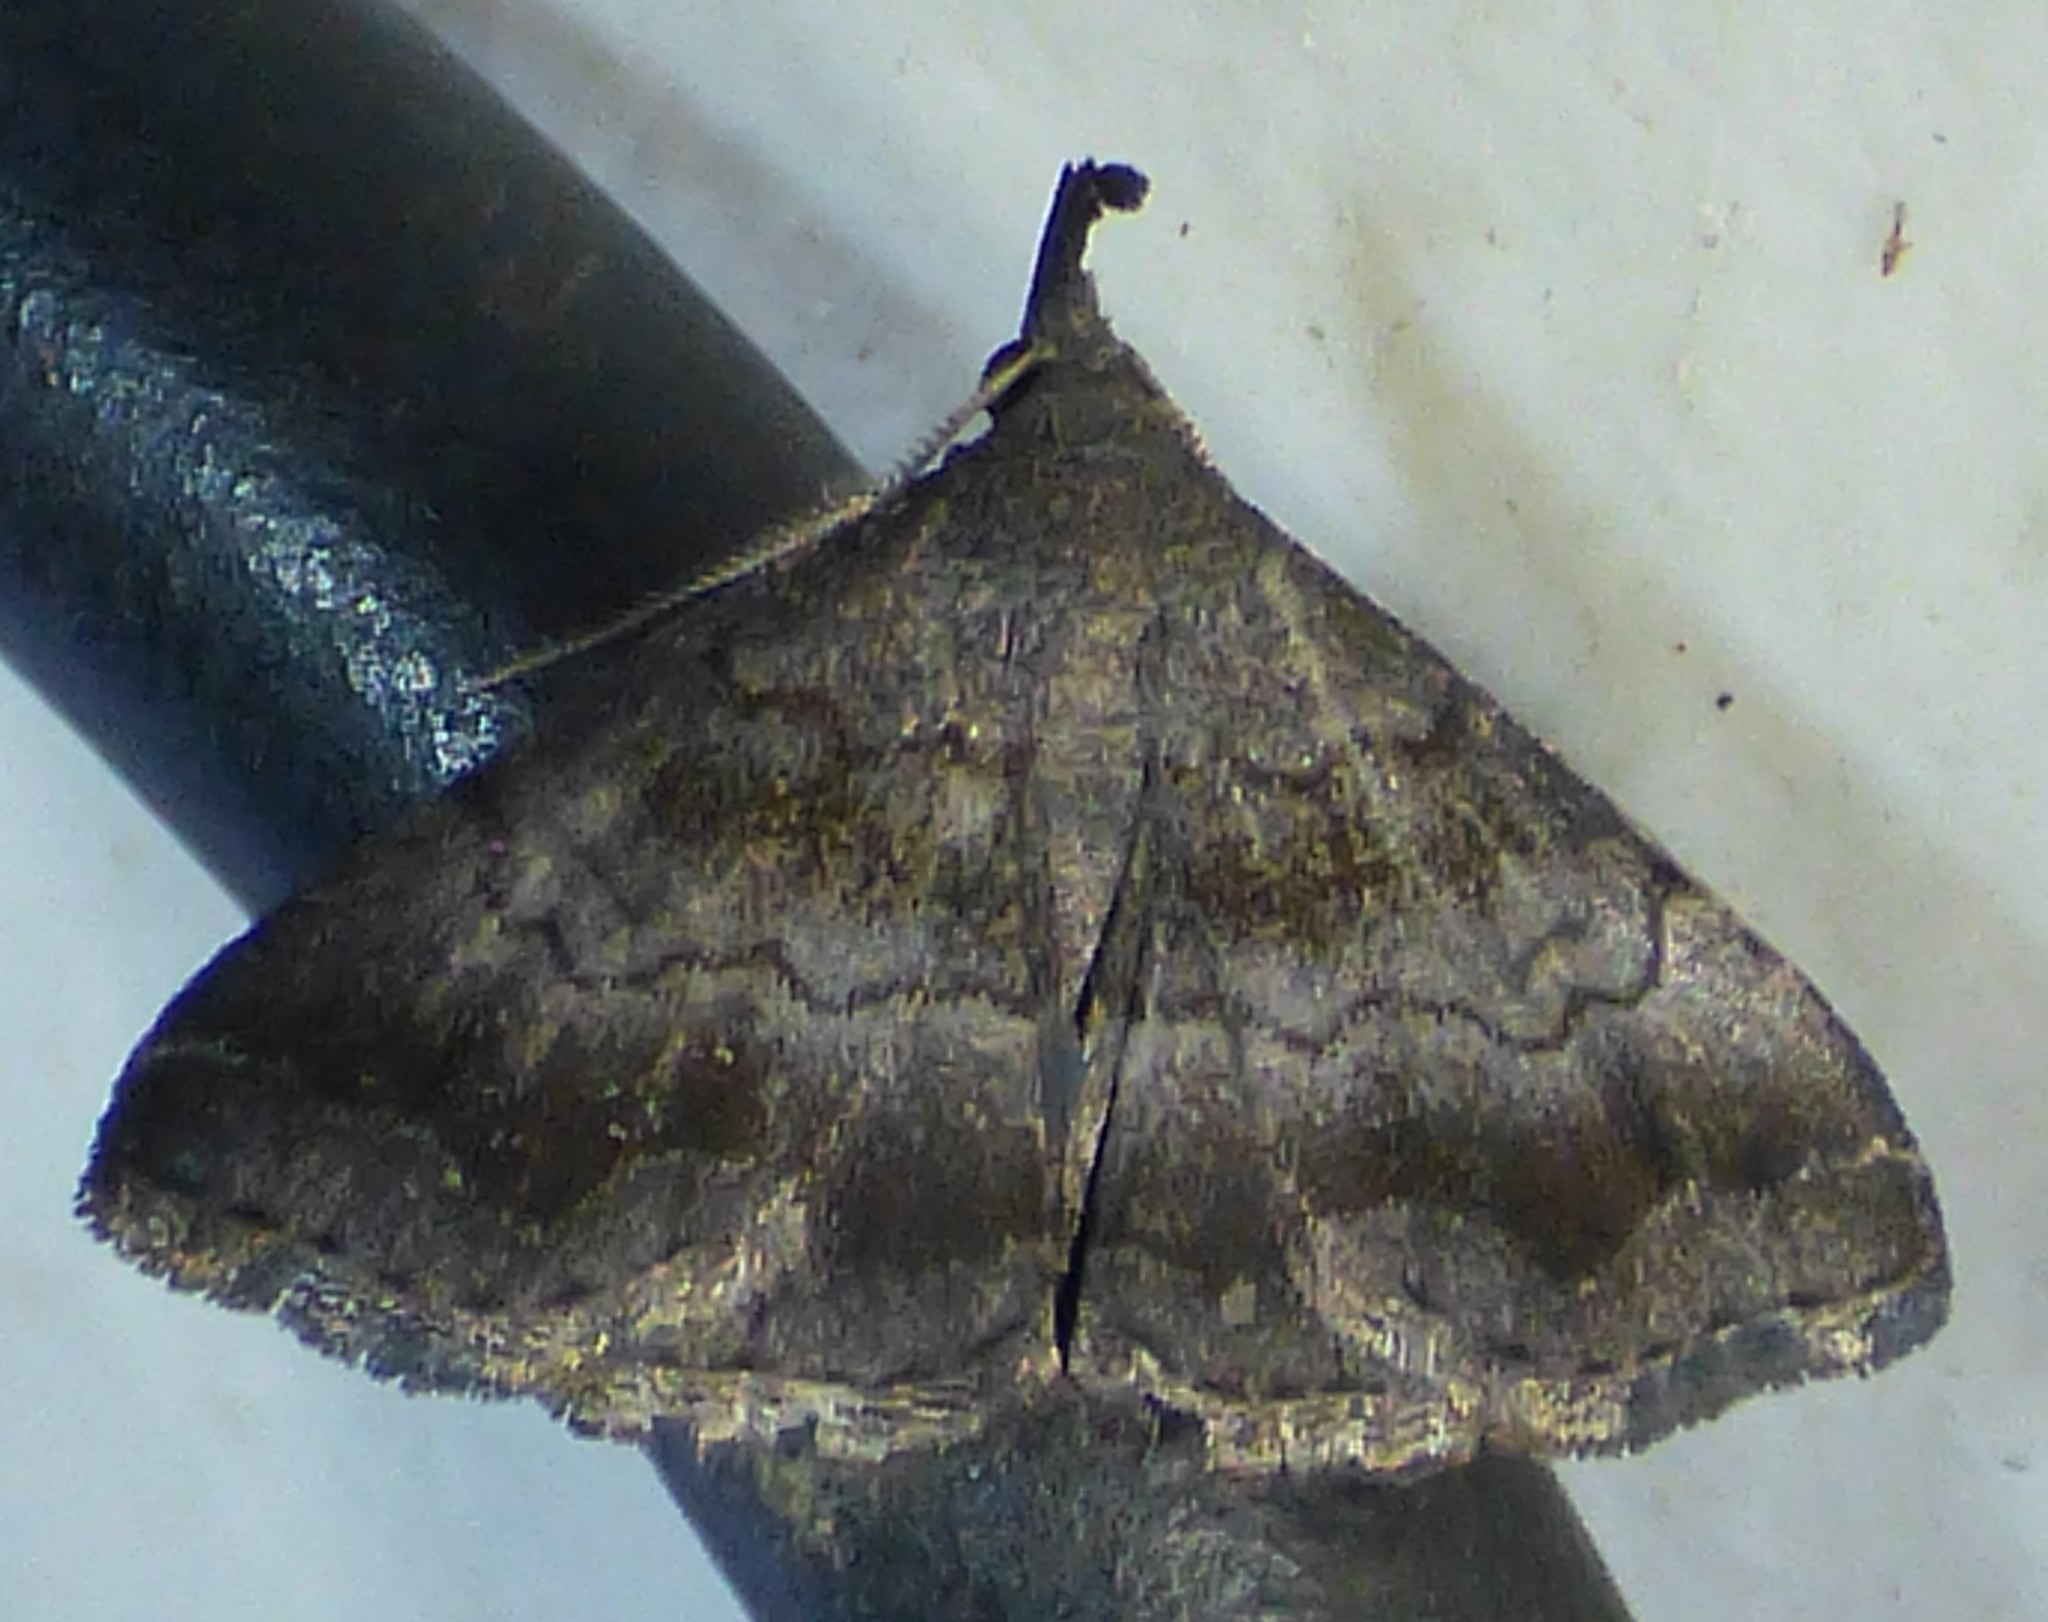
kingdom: Animalia
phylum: Arthropoda
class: Insecta
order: Lepidoptera
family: Erebidae
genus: Phalaenostola
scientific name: Phalaenostola larentioides
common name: Black-banded owlet
